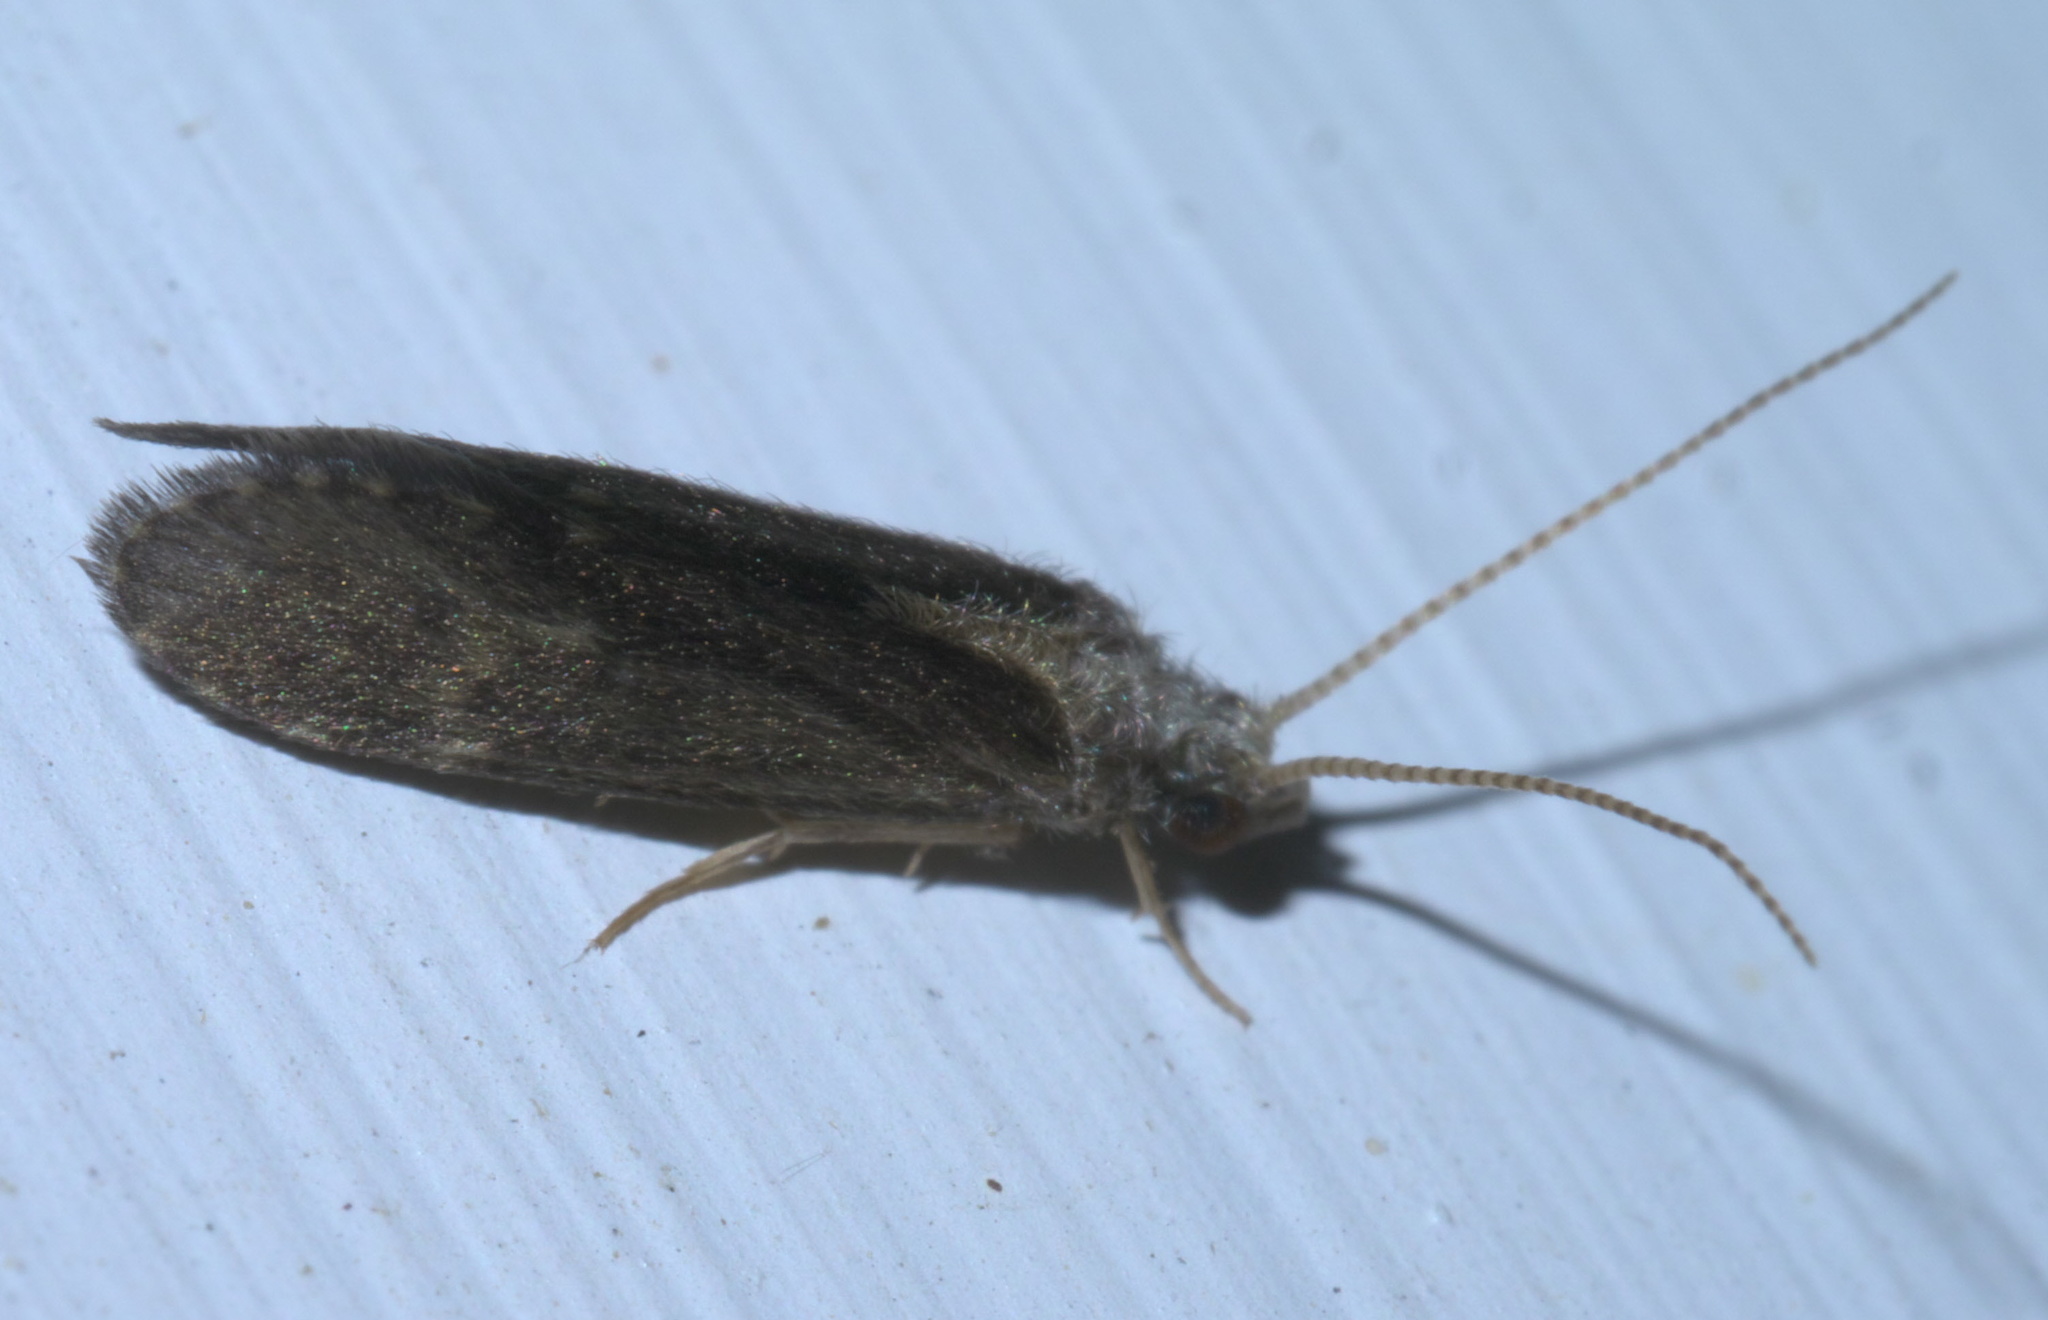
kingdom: Animalia
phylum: Arthropoda
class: Insecta
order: Trichoptera
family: Polycentropodidae
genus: Cyrnellus
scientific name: Cyrnellus fraternus
